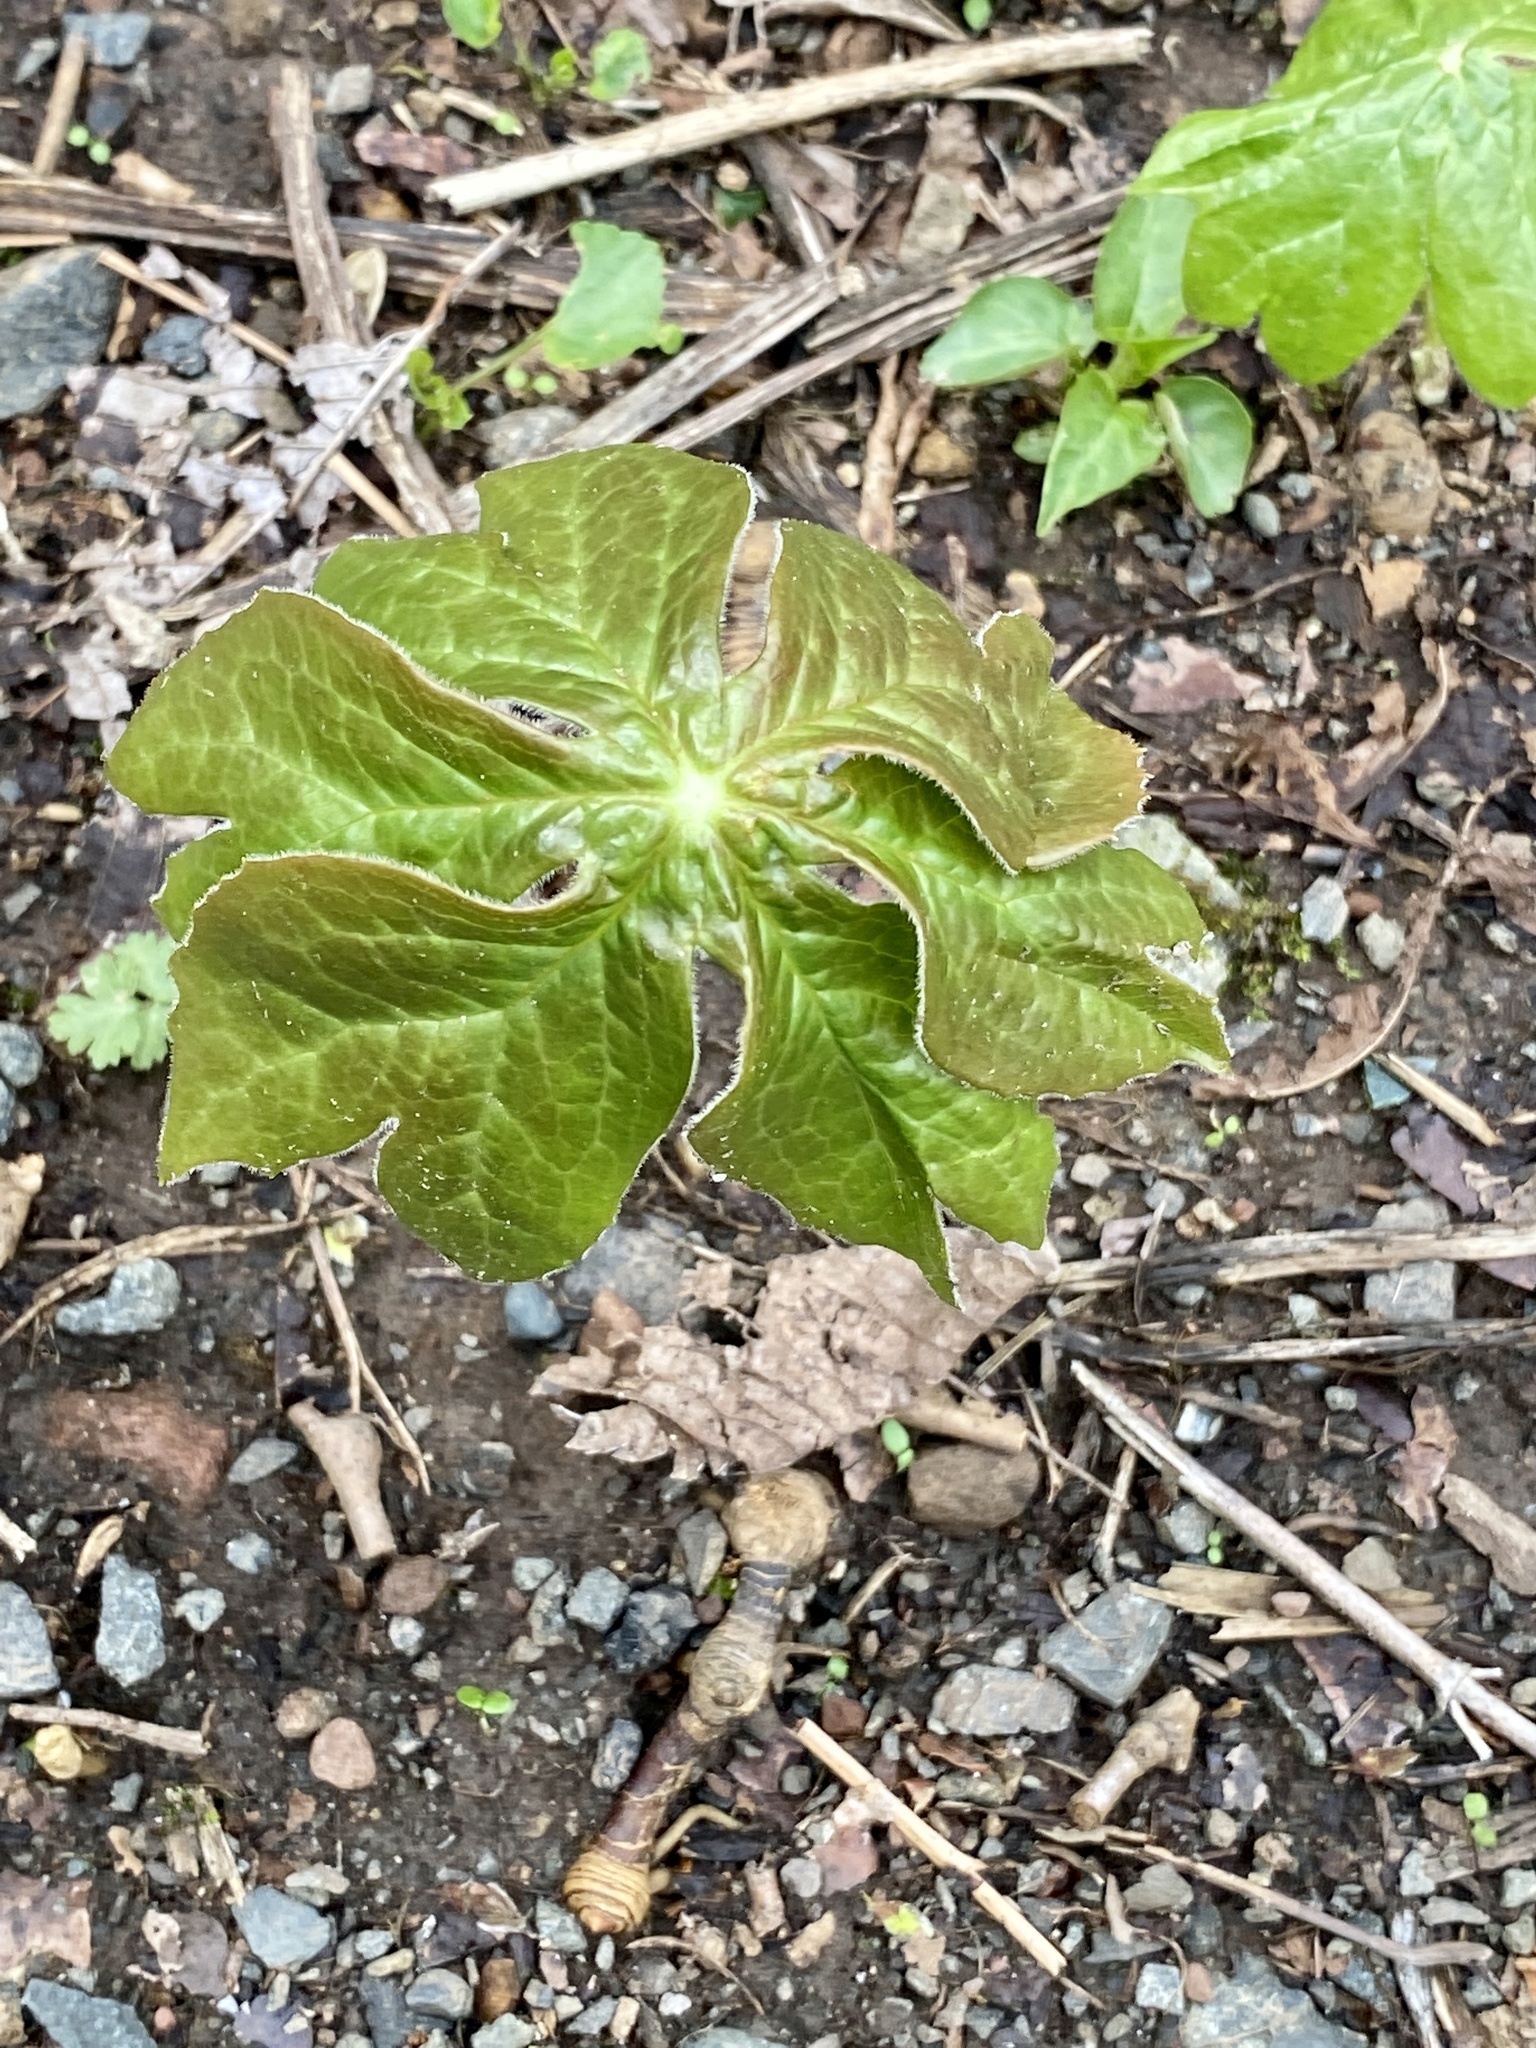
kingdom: Plantae
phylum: Tracheophyta
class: Magnoliopsida
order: Ranunculales
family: Berberidaceae
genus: Podophyllum
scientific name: Podophyllum peltatum
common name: Wild mandrake
